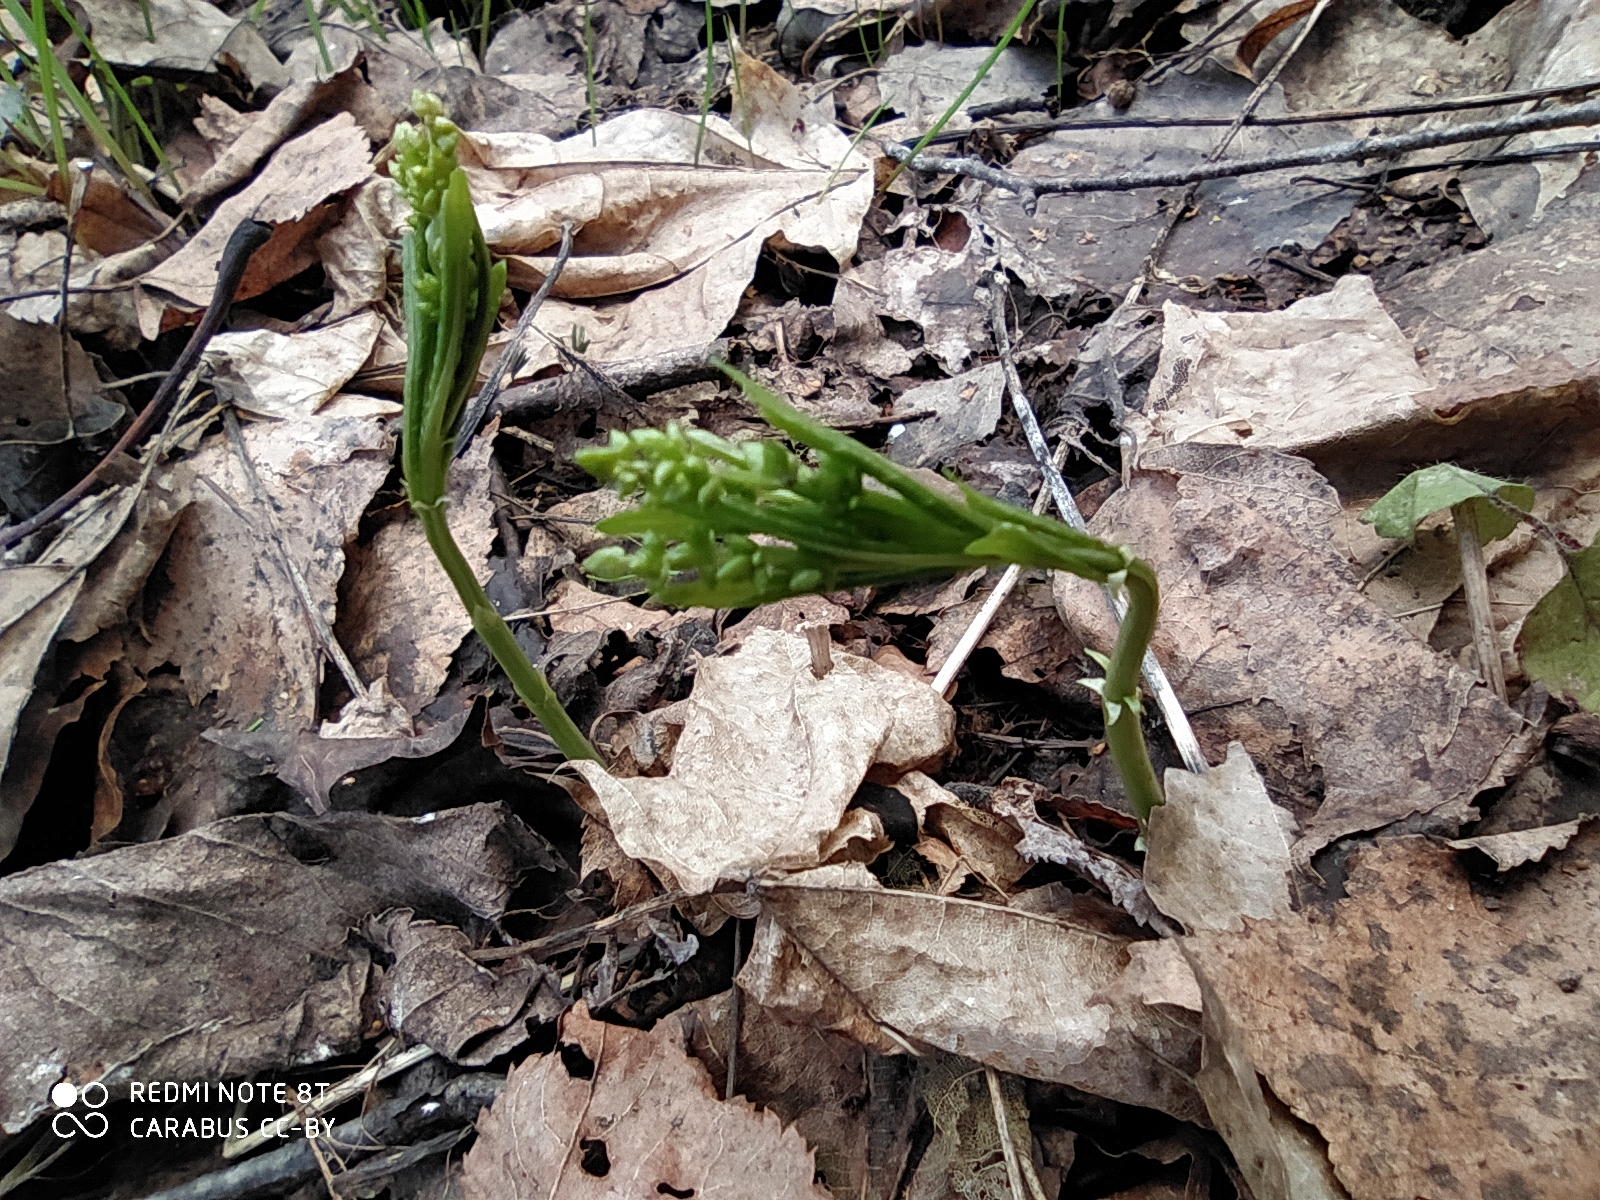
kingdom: Plantae
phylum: Tracheophyta
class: Magnoliopsida
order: Malpighiales
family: Euphorbiaceae
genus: Mercurialis
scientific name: Mercurialis perennis
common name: Dog mercury
